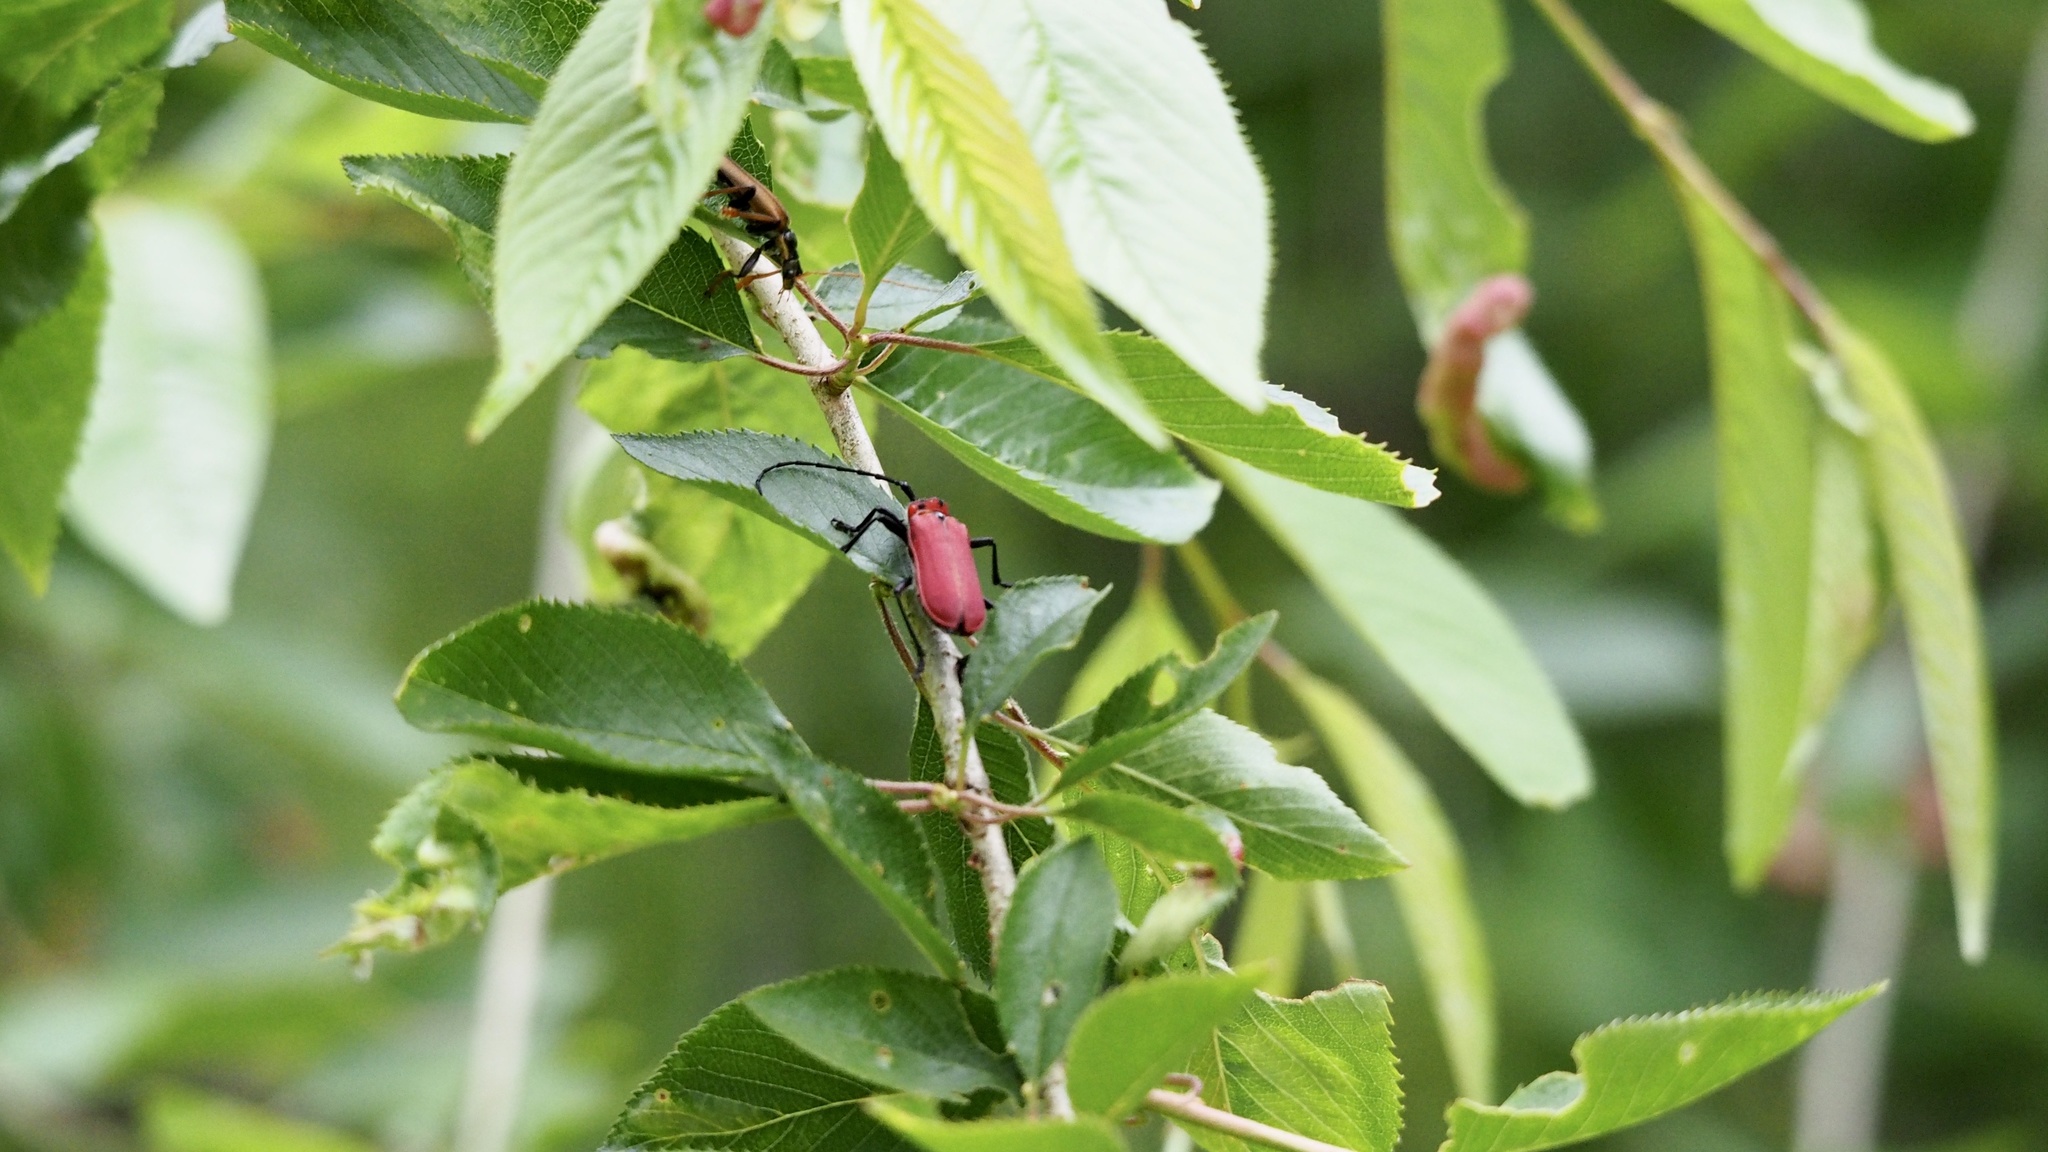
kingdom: Animalia
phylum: Arthropoda
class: Insecta
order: Coleoptera
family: Cerambycidae
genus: Purpuricenus
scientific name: Purpuricenus temminckii
